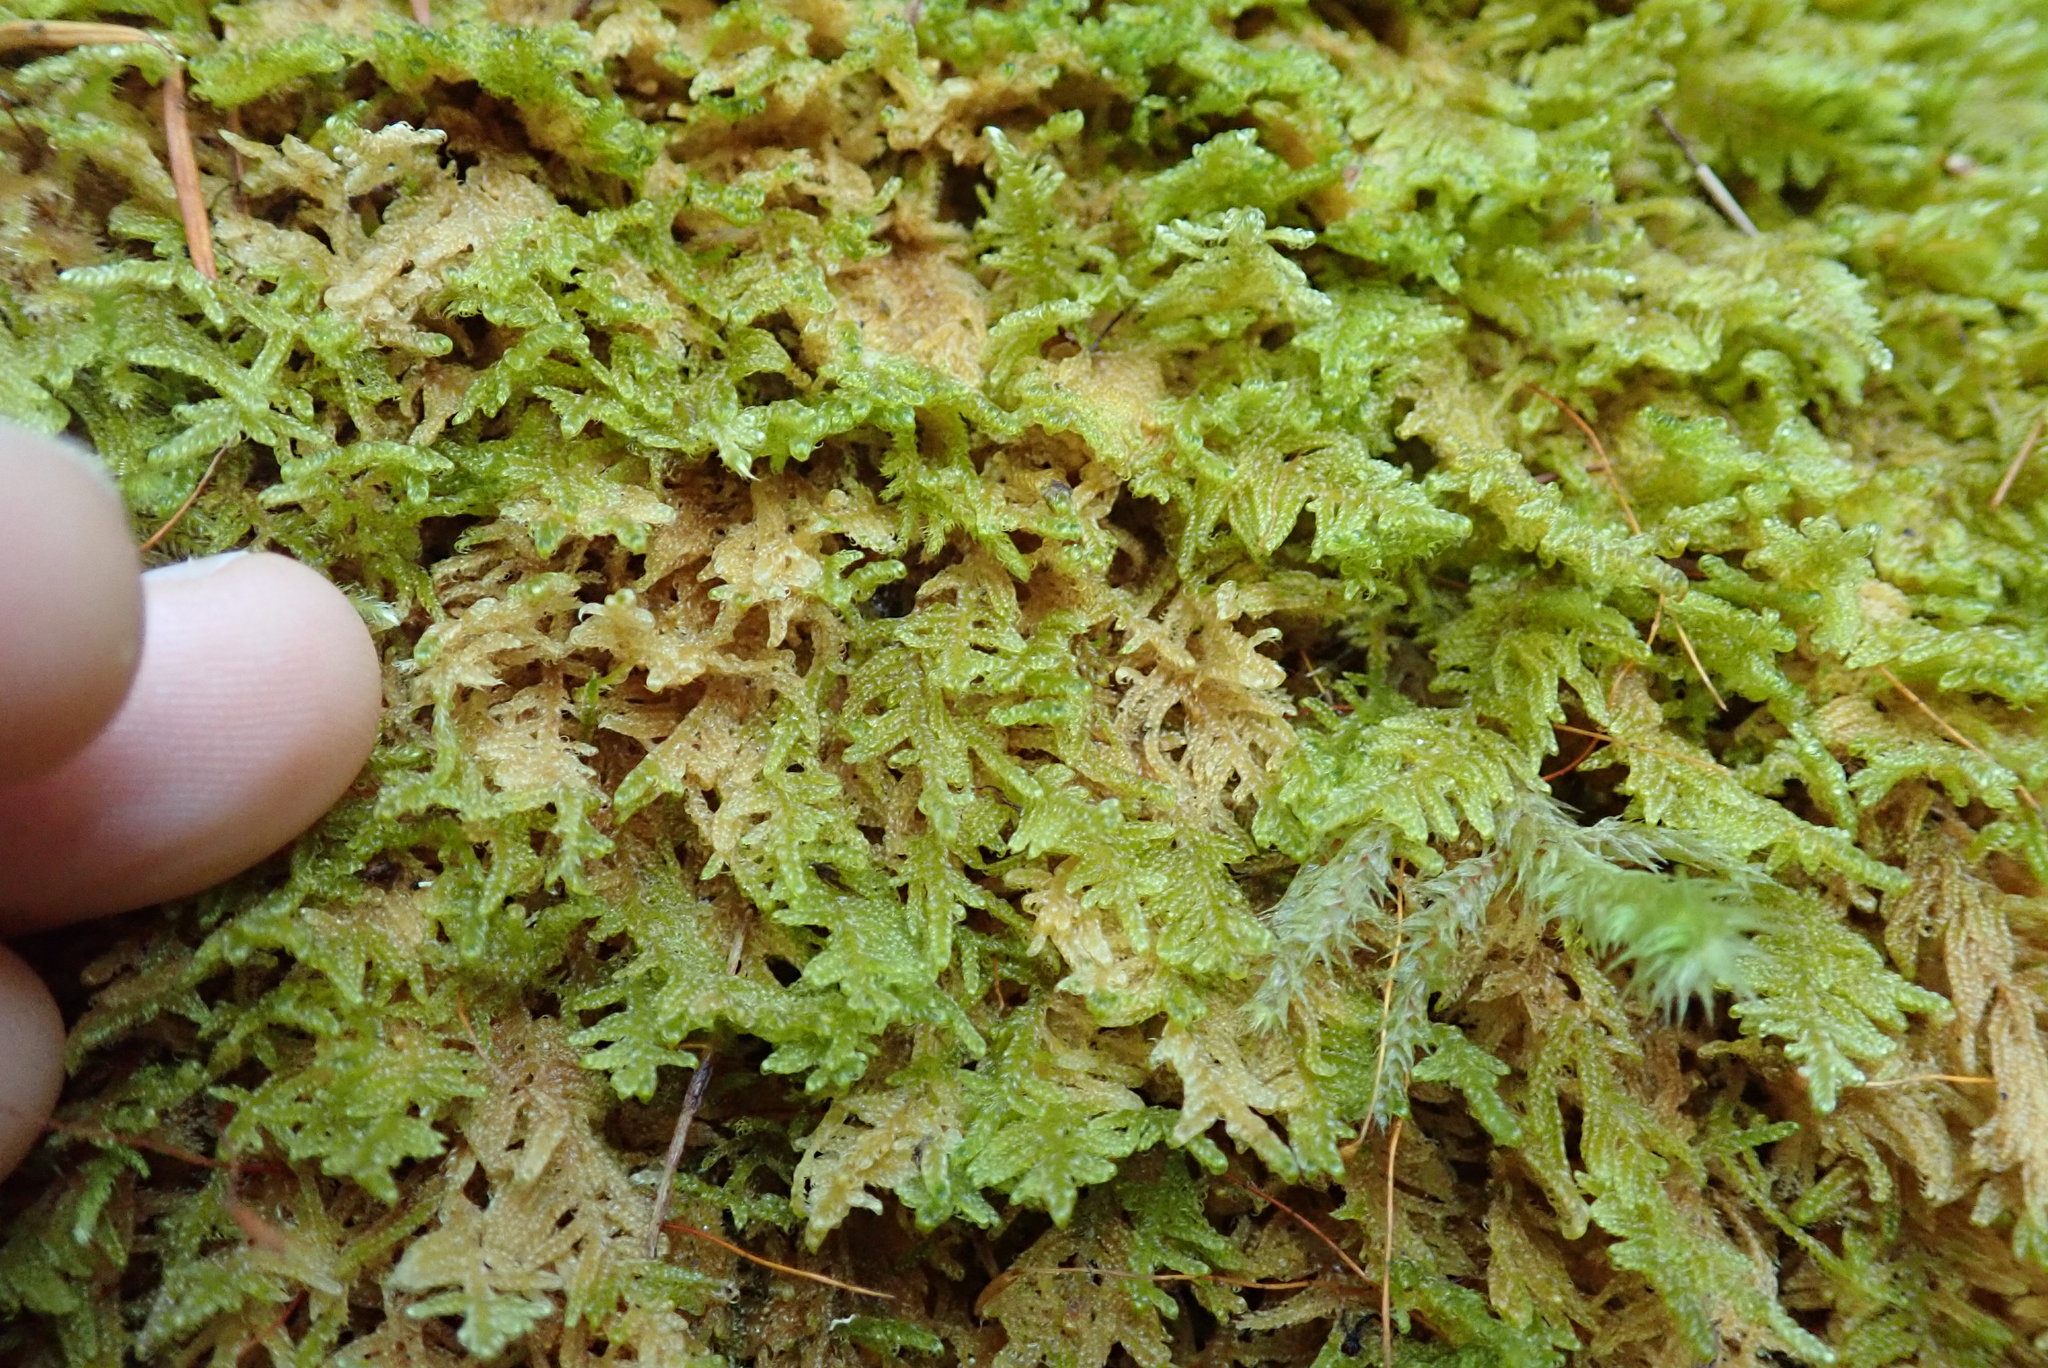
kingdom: Plantae
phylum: Bryophyta
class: Bryopsida
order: Hypnales
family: Stereodontaceae
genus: Stereodon
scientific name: Stereodon subimponens
